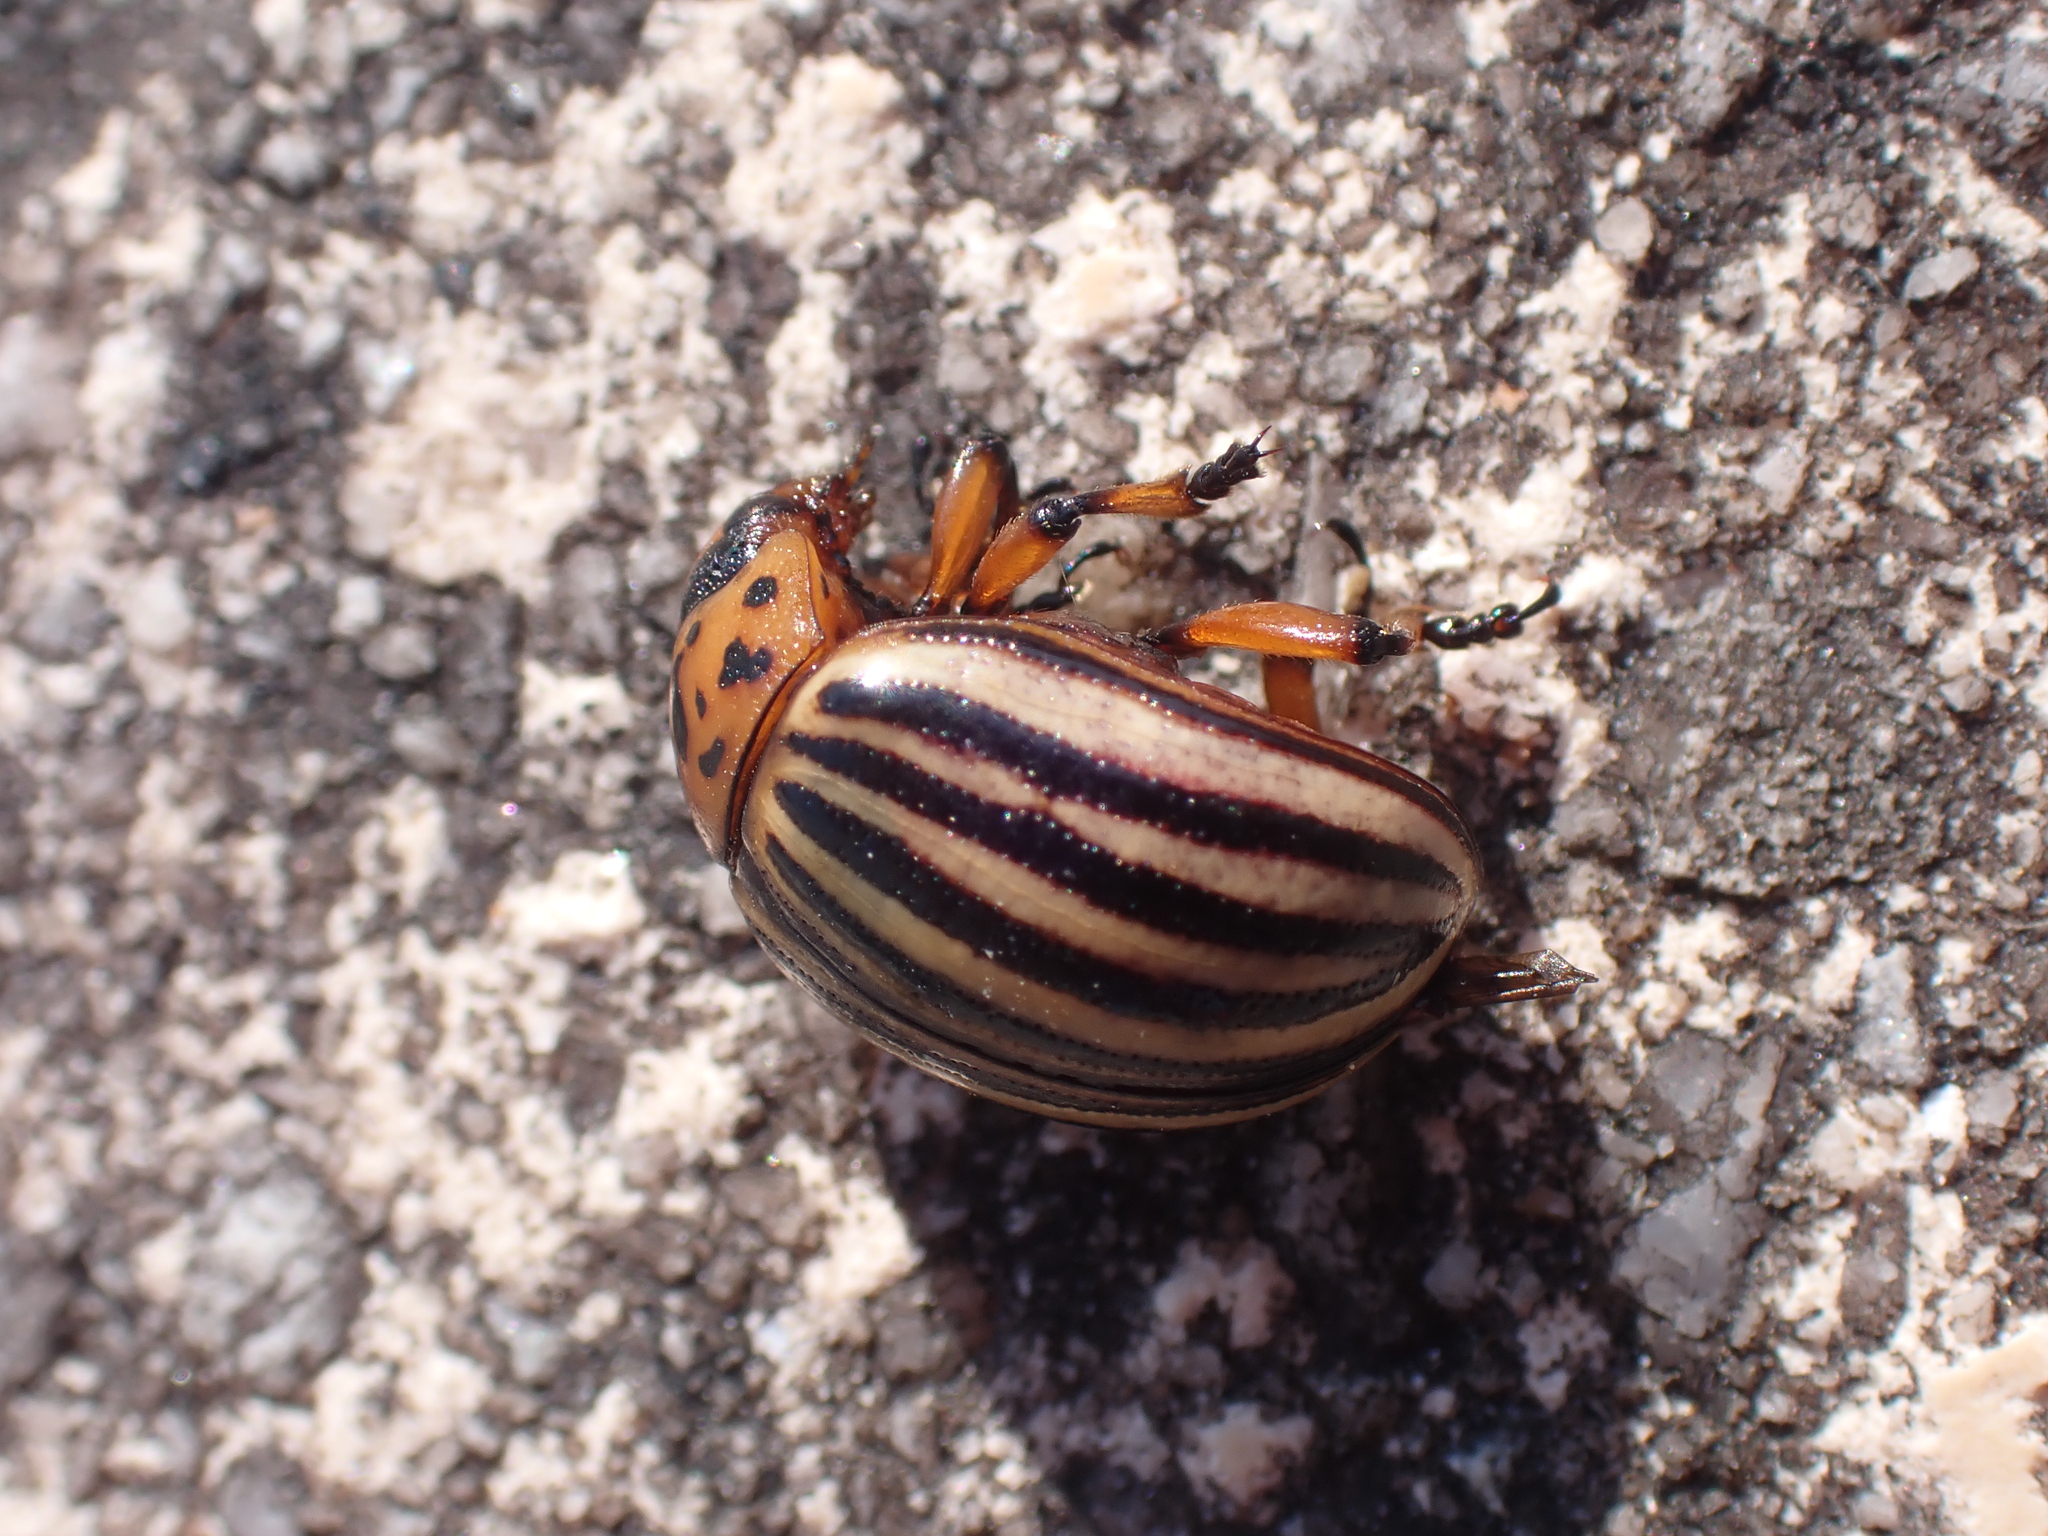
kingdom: Animalia
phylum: Arthropoda
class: Insecta
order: Coleoptera
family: Chrysomelidae
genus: Leptinotarsa
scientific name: Leptinotarsa decemlineata
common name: Colorado potato beetle
